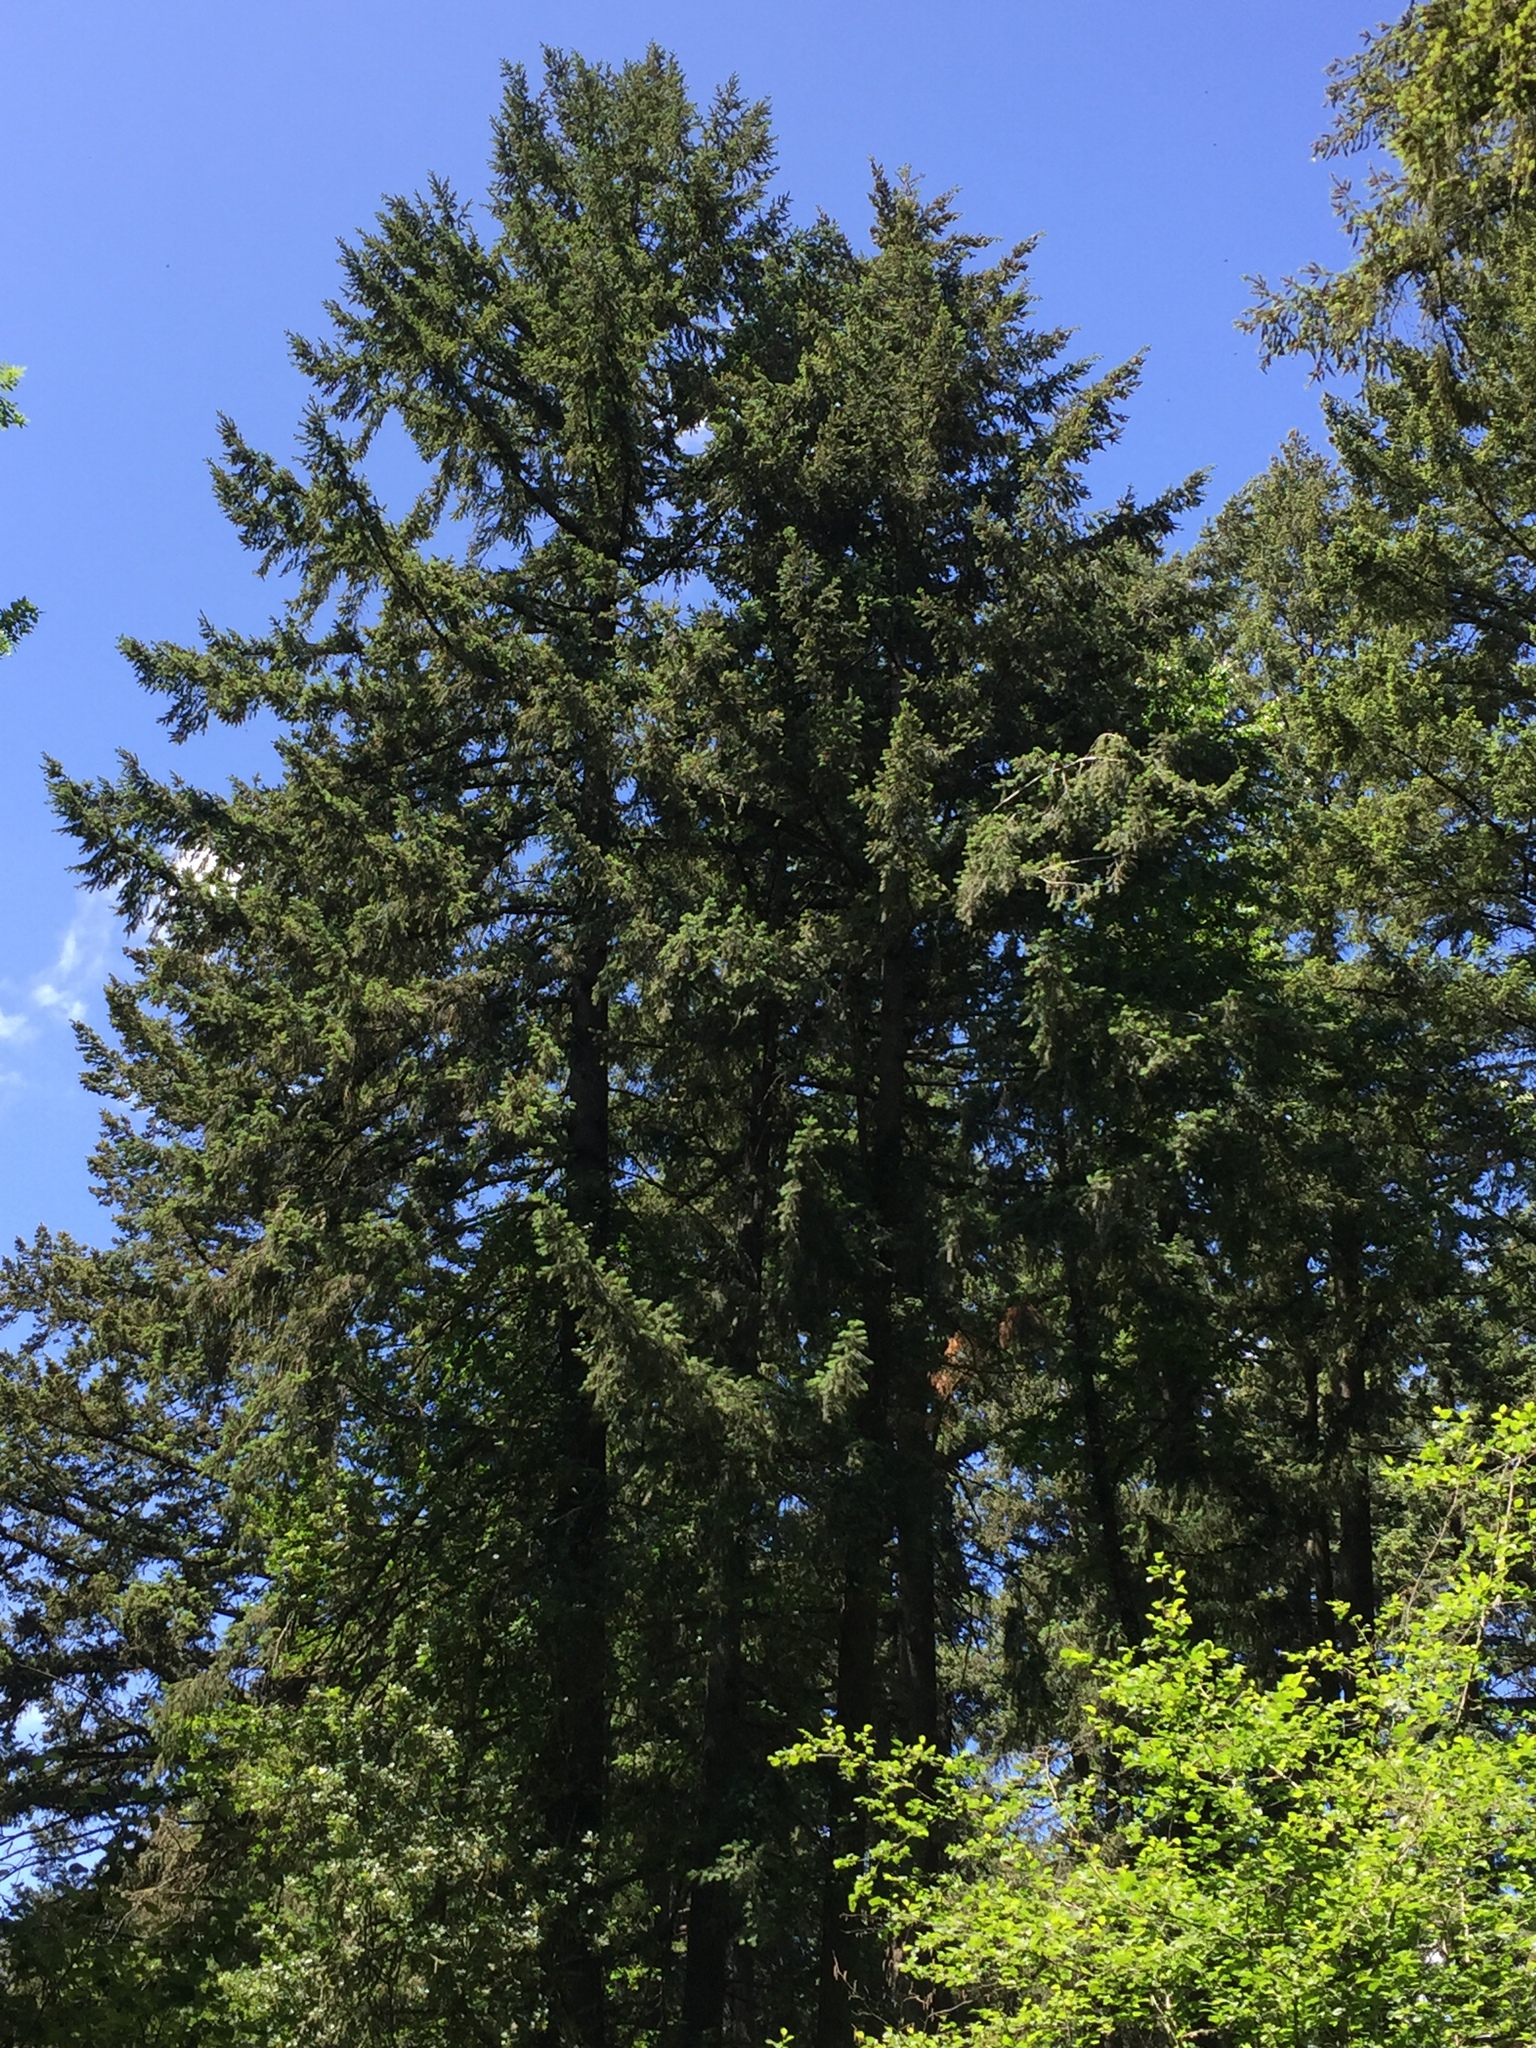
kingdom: Plantae
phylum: Tracheophyta
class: Pinopsida
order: Pinales
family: Pinaceae
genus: Pseudotsuga
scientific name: Pseudotsuga menziesii
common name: Douglas fir
